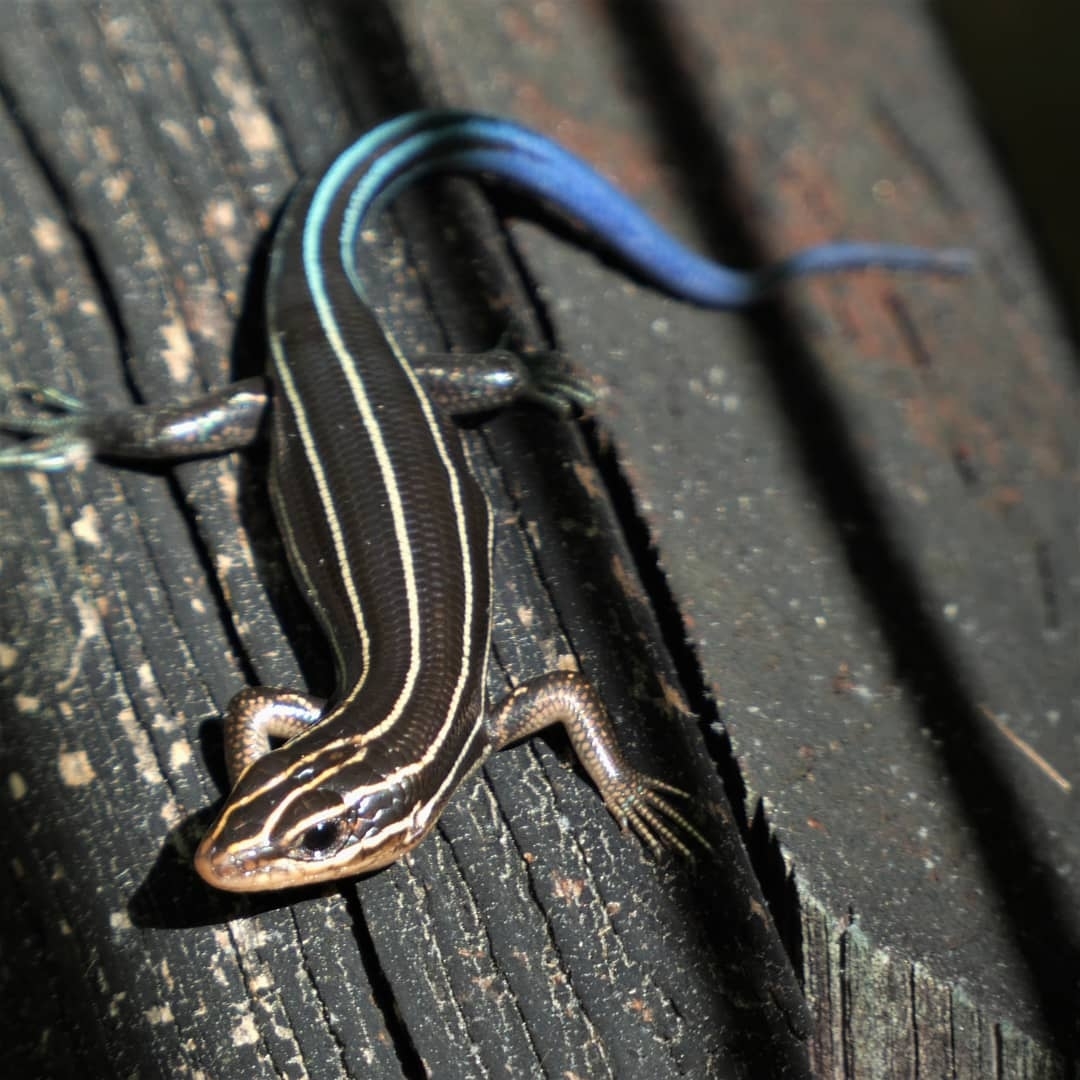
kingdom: Animalia
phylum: Chordata
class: Squamata
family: Scincidae
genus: Plestiodon
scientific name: Plestiodon laticeps
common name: Broadhead skink
